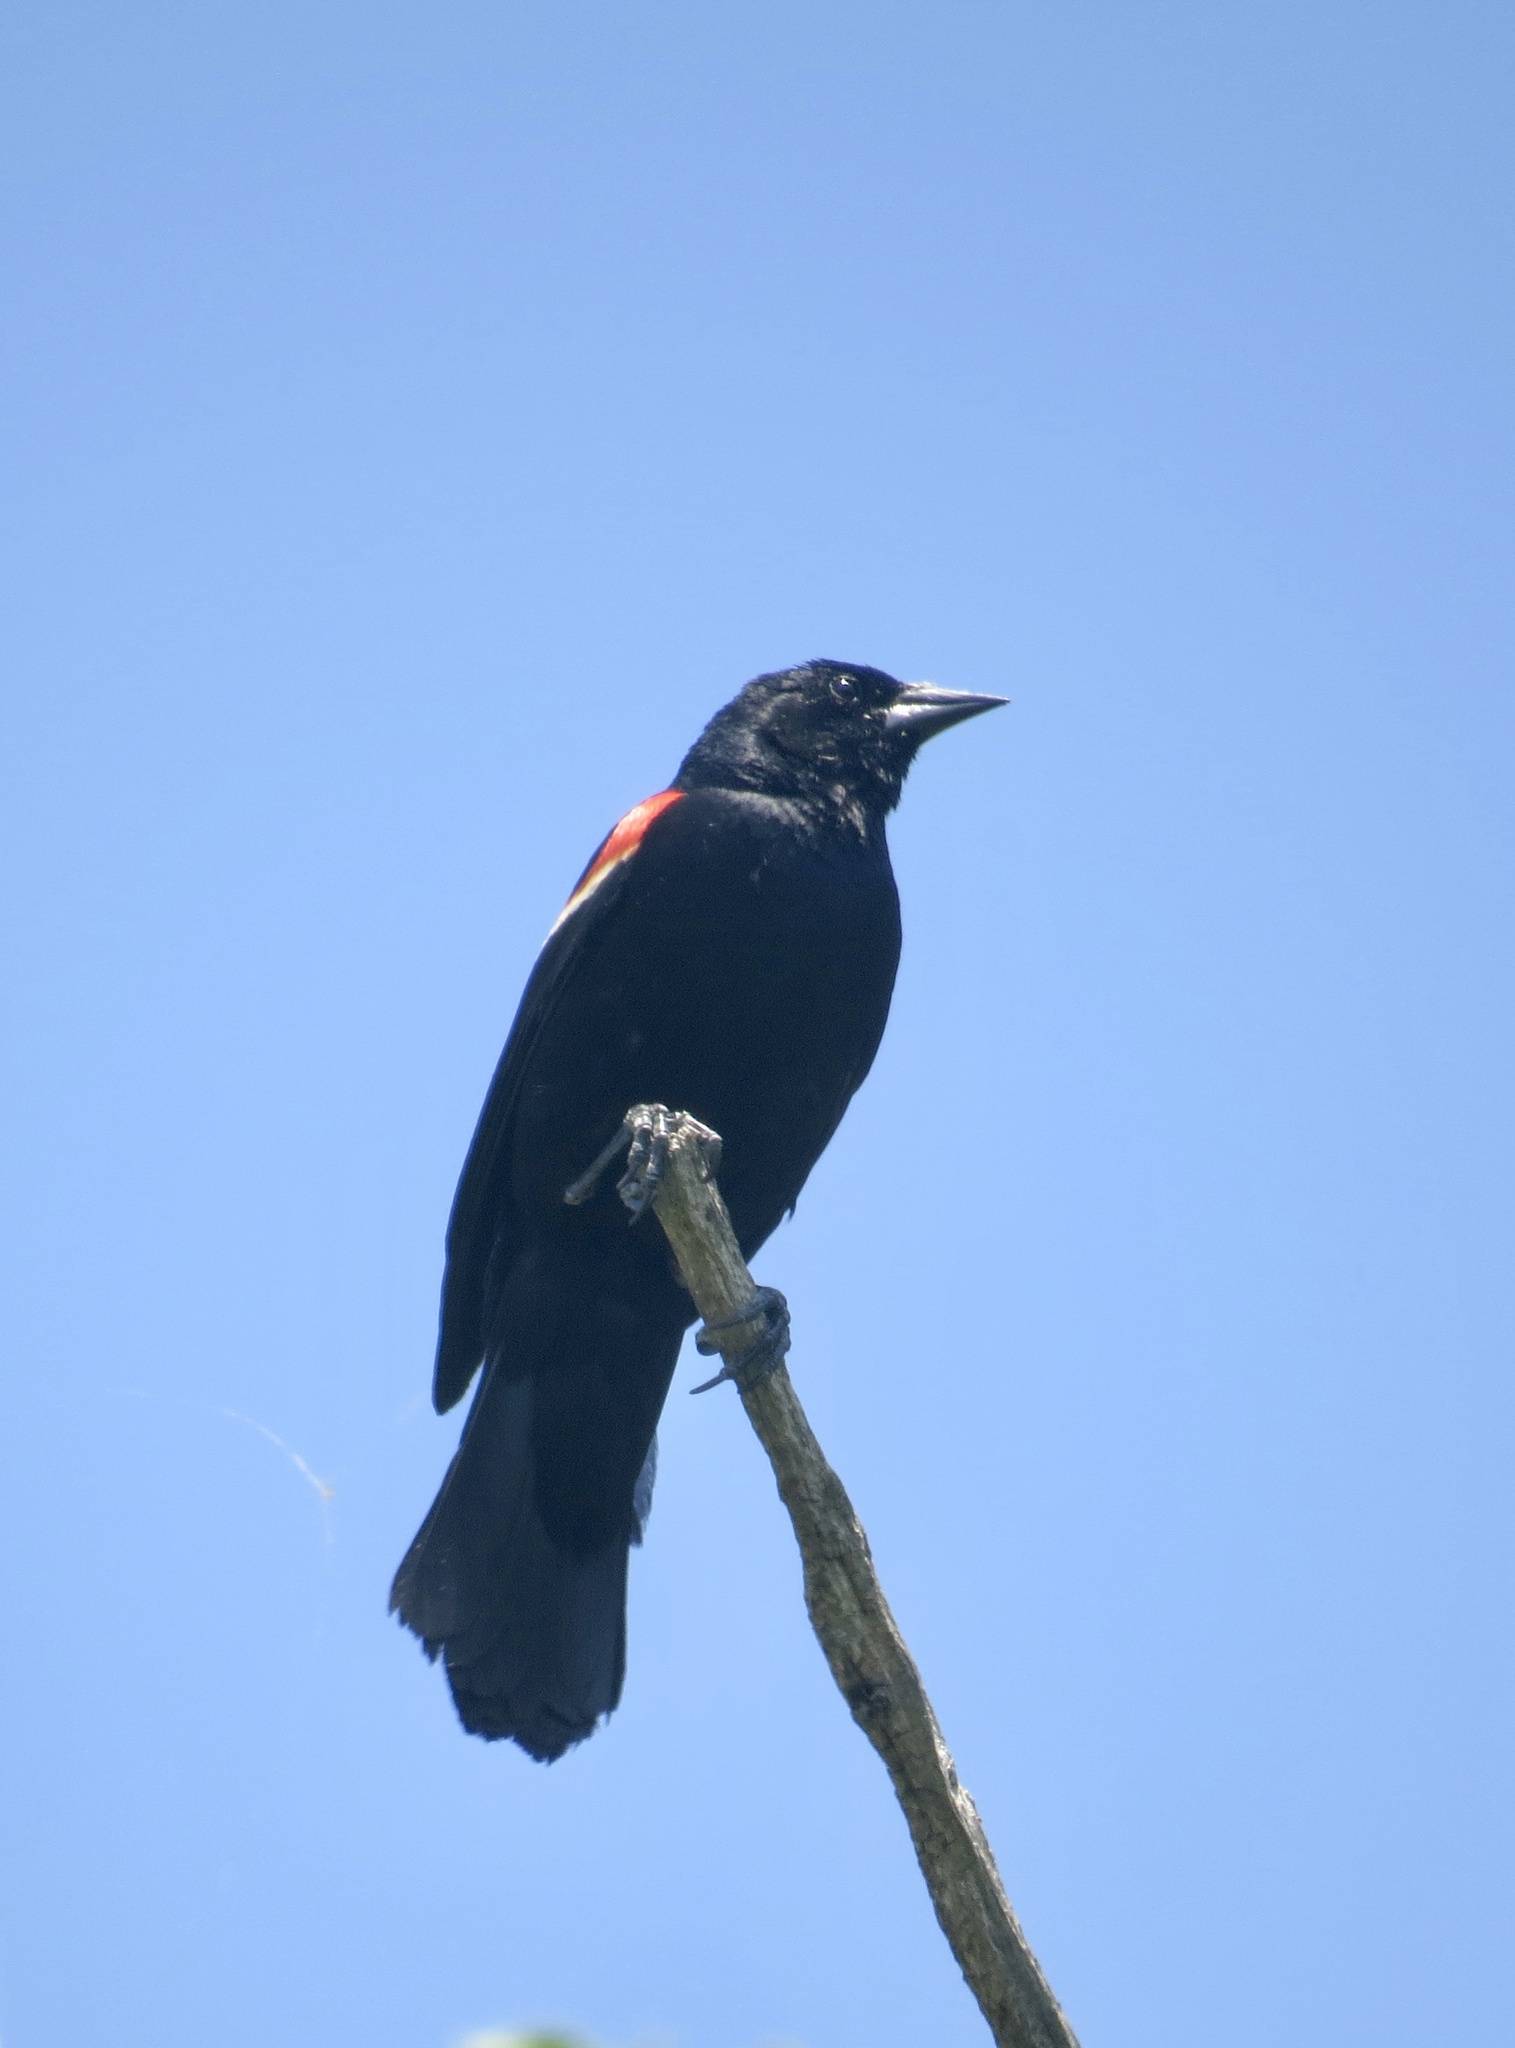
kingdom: Animalia
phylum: Chordata
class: Aves
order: Passeriformes
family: Icteridae
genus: Agelaius
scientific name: Agelaius phoeniceus
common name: Red-winged blackbird
